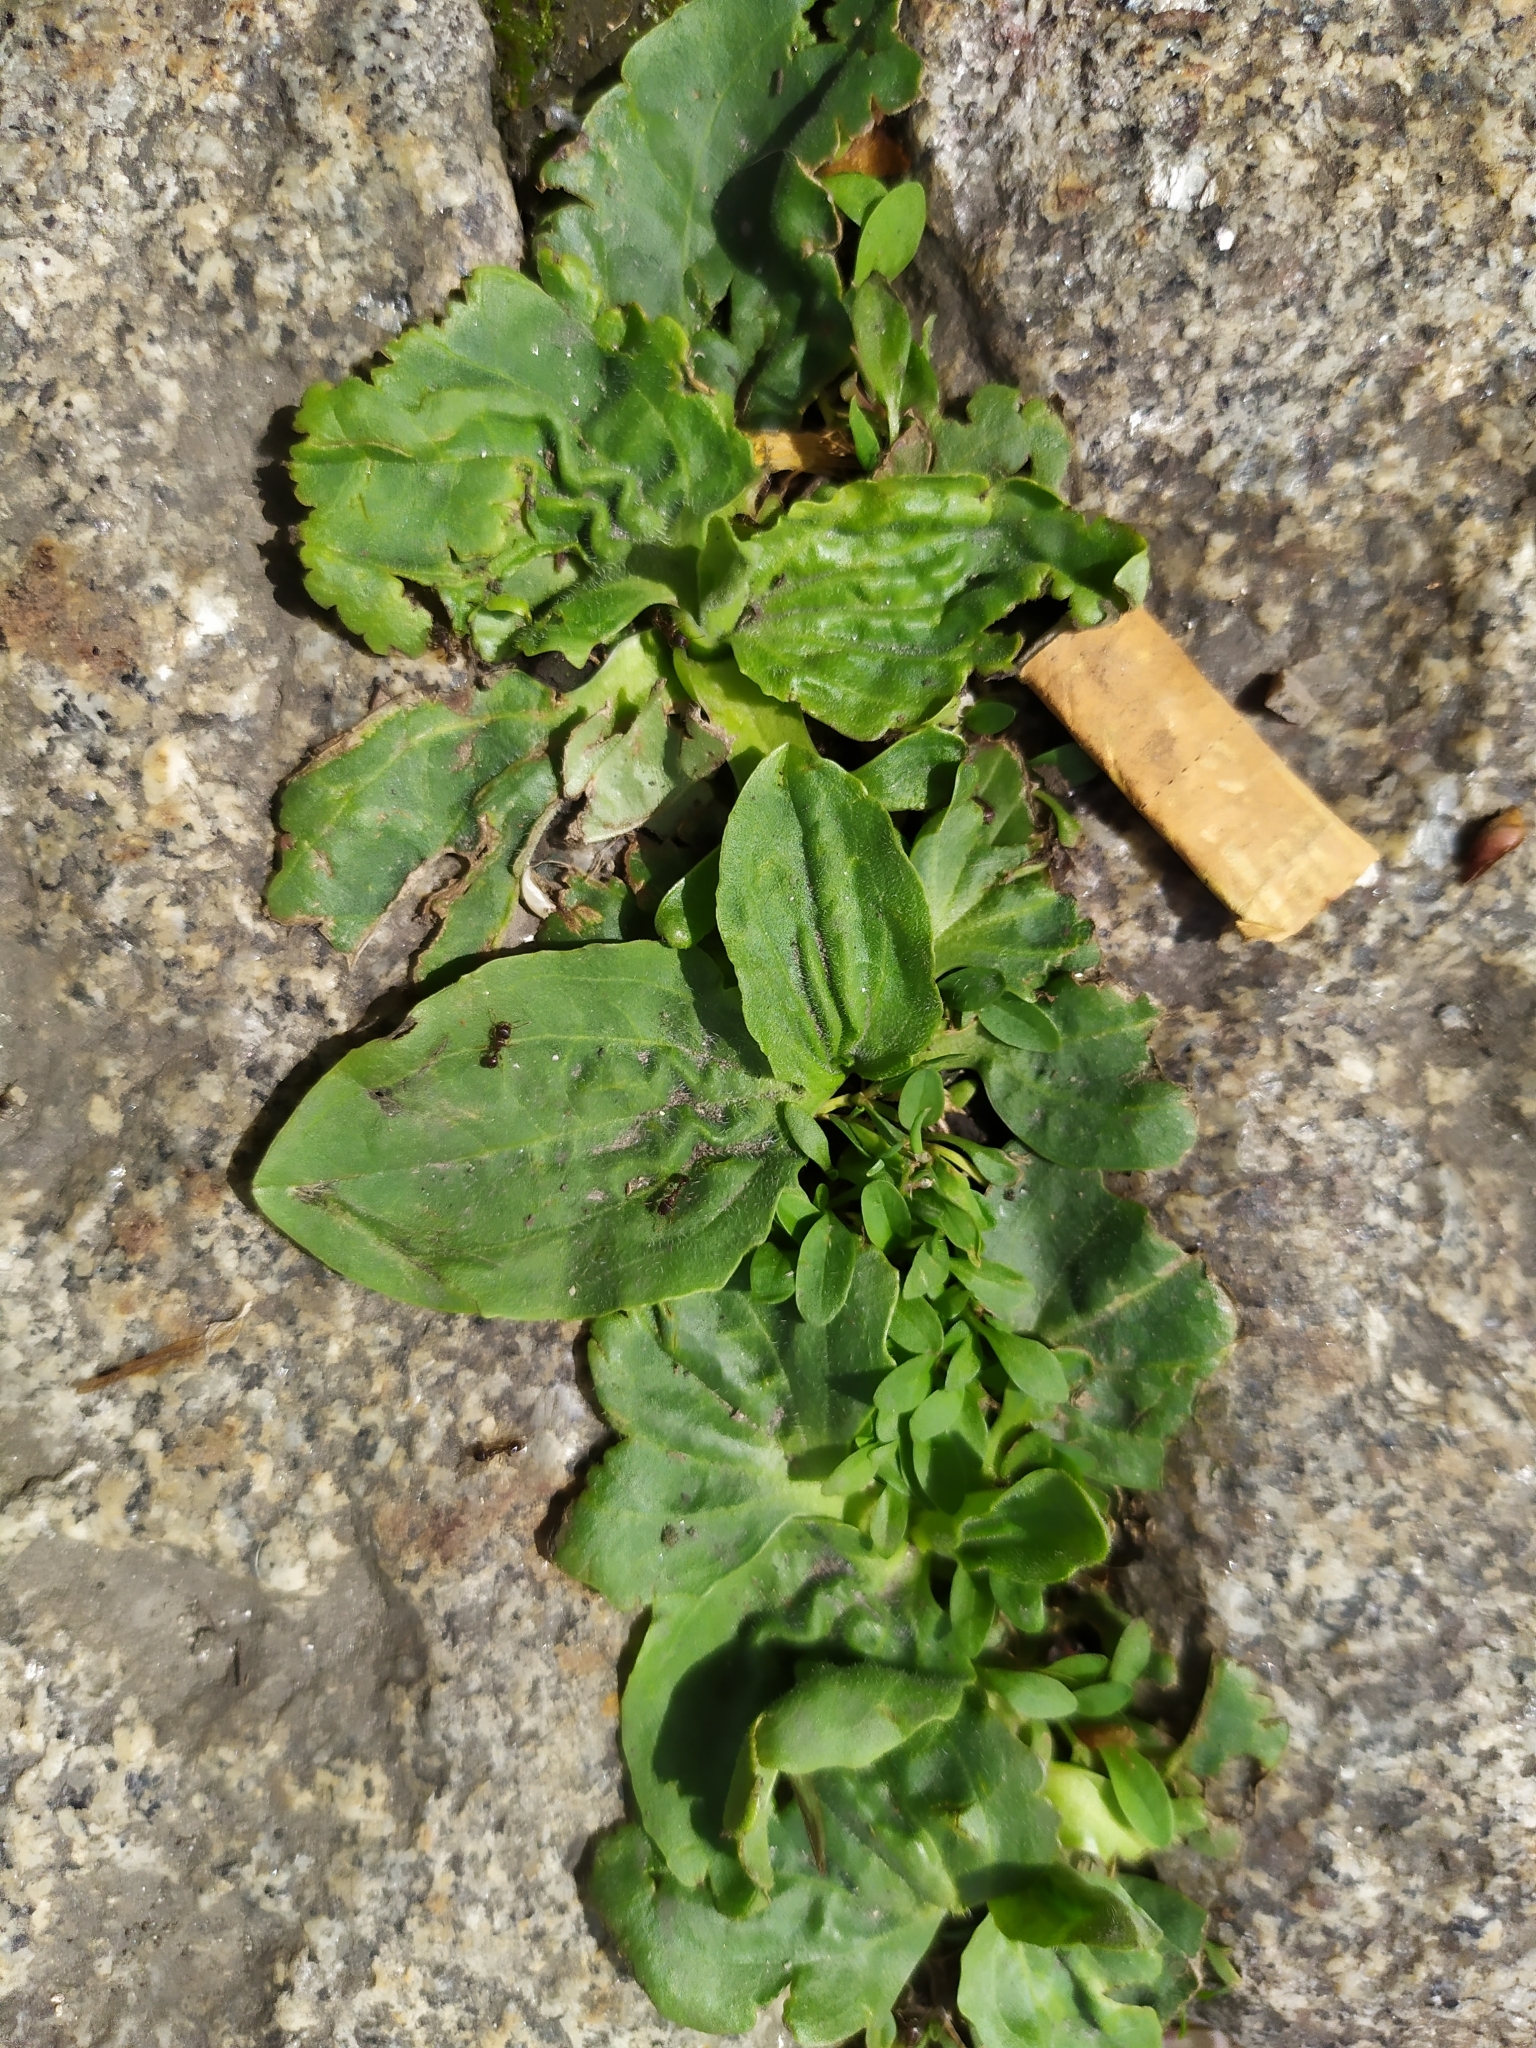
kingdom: Plantae
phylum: Tracheophyta
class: Magnoliopsida
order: Lamiales
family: Plantaginaceae
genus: Plantago
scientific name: Plantago major
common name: Common plantain
